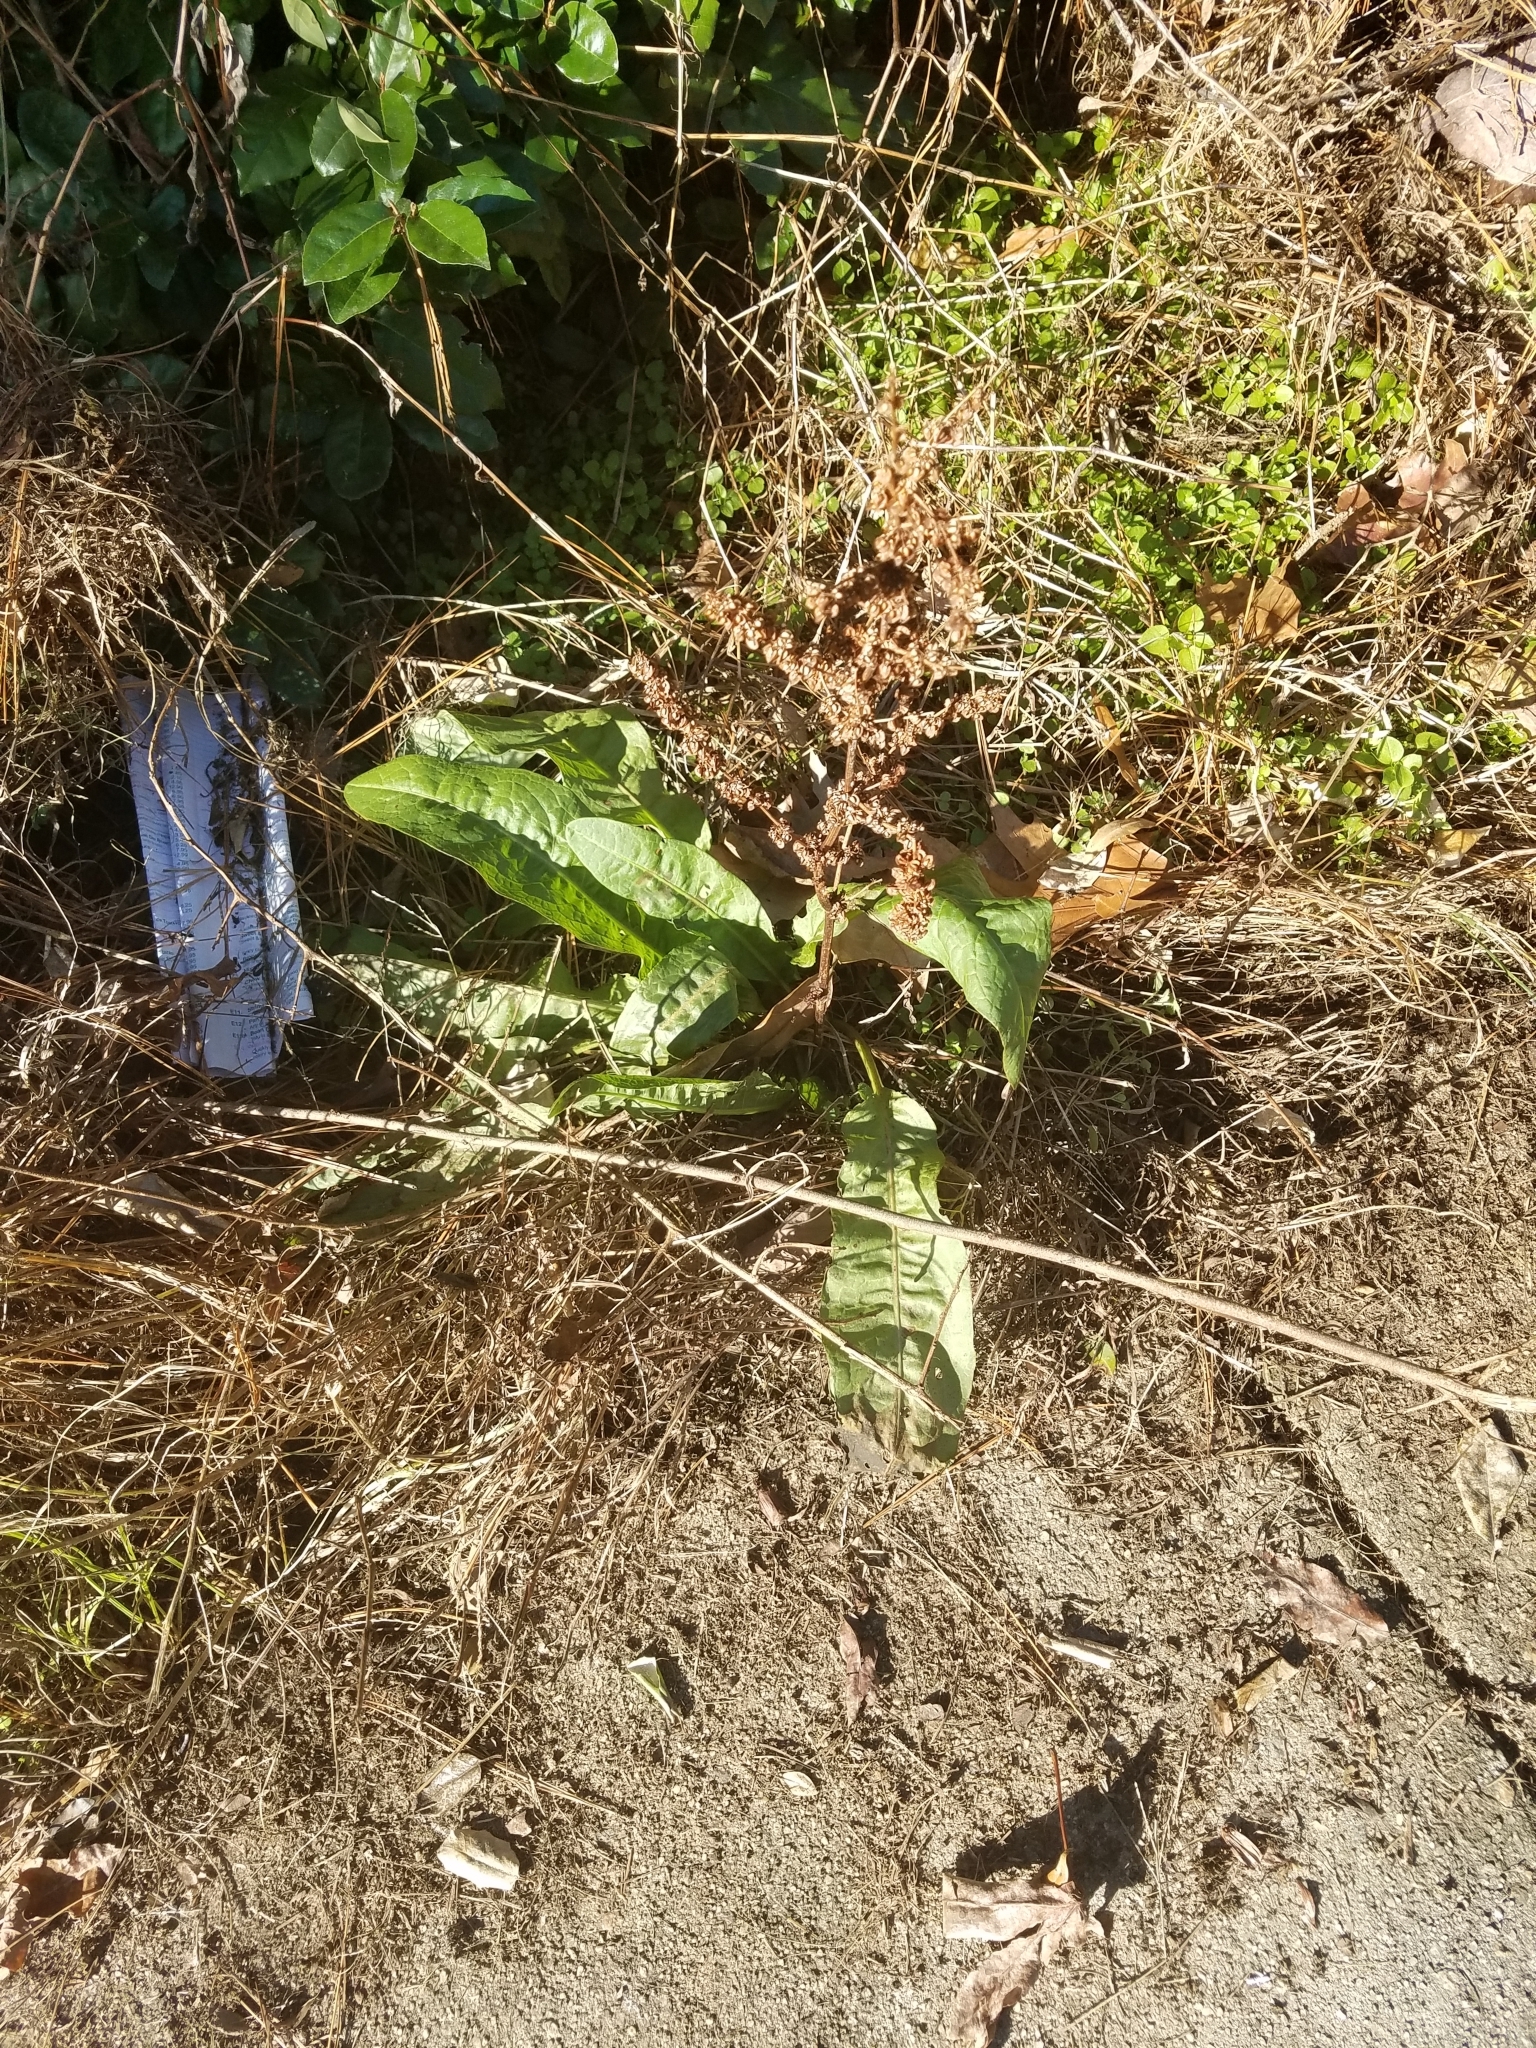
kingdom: Plantae
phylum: Tracheophyta
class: Magnoliopsida
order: Caryophyllales
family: Polygonaceae
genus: Rumex
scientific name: Rumex crispus
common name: Curled dock
